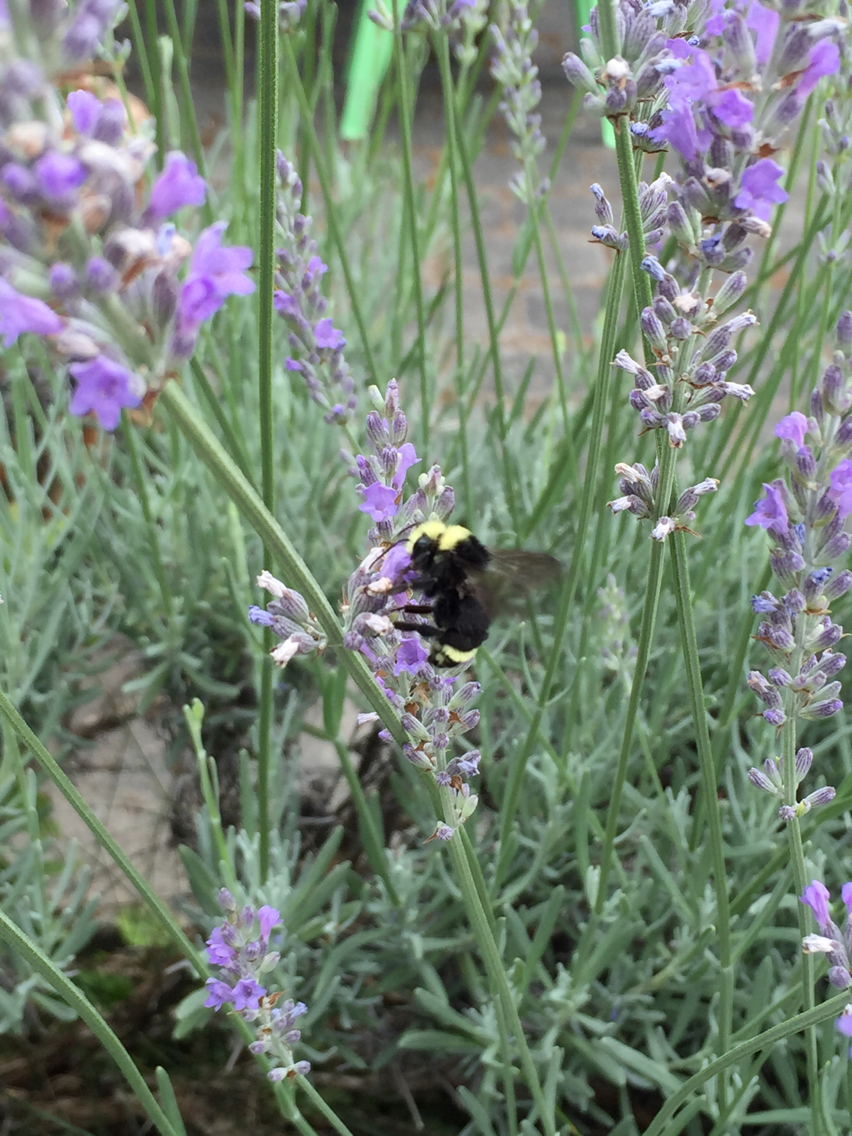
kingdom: Animalia
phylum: Arthropoda
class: Insecta
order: Hymenoptera
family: Apidae
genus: Bombus
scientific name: Bombus vosnesenskii
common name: Vosnesensky bumble bee
